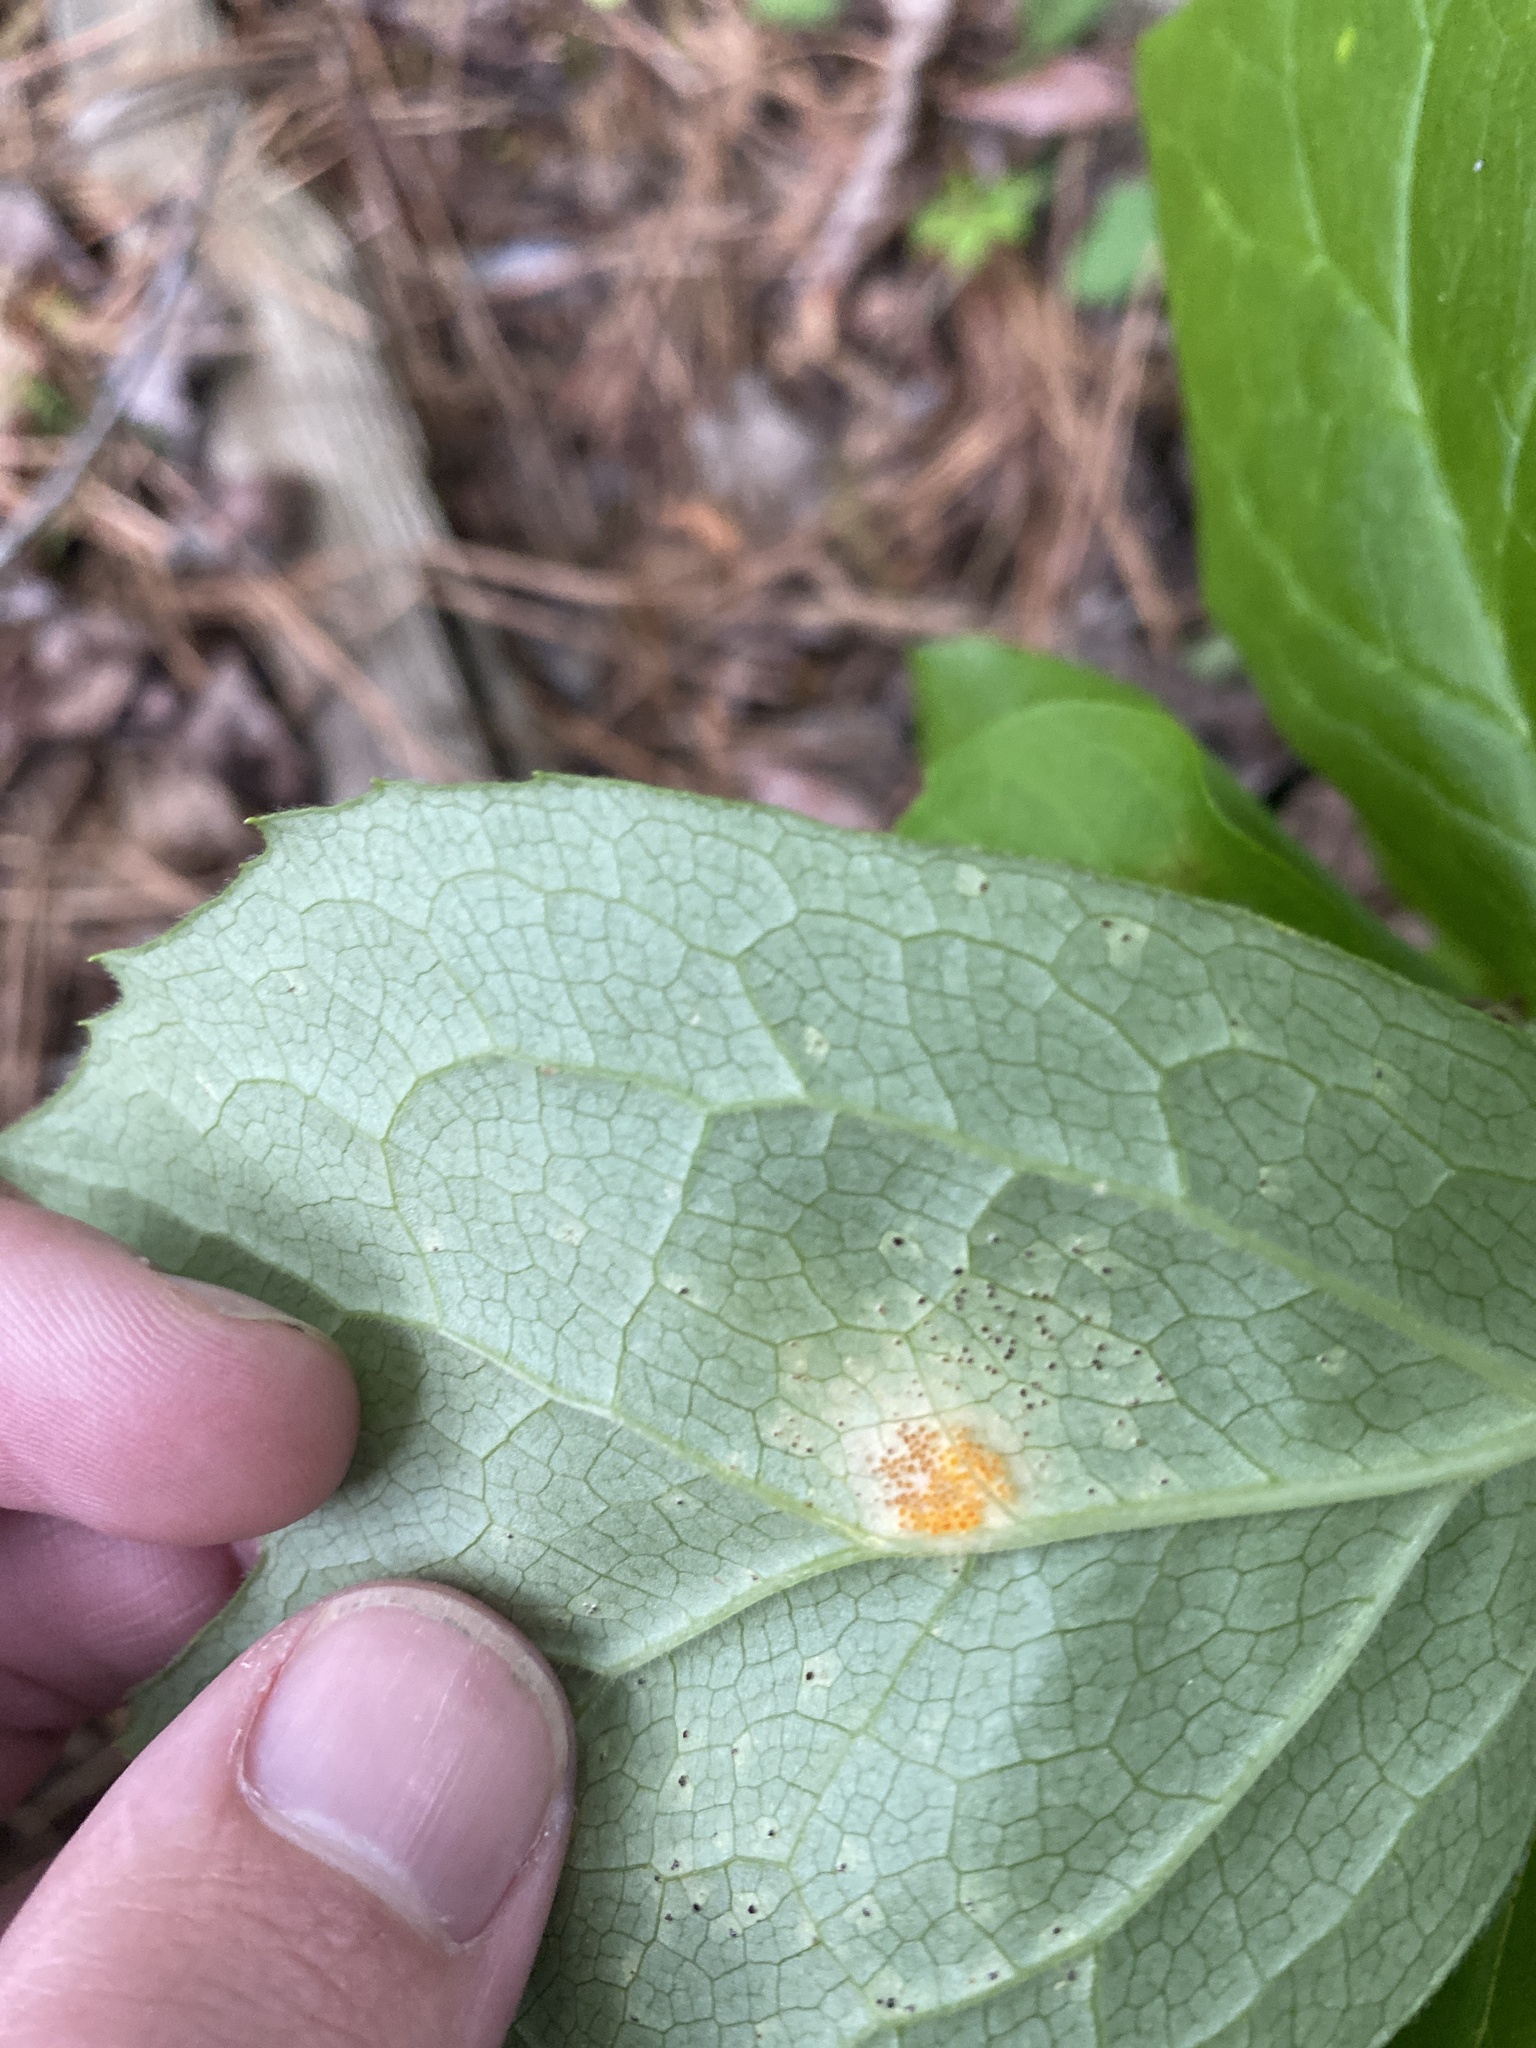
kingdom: Fungi
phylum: Basidiomycota
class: Pucciniomycetes
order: Pucciniales
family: Pucciniaceae
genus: Puccinia
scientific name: Puccinia podophylli
